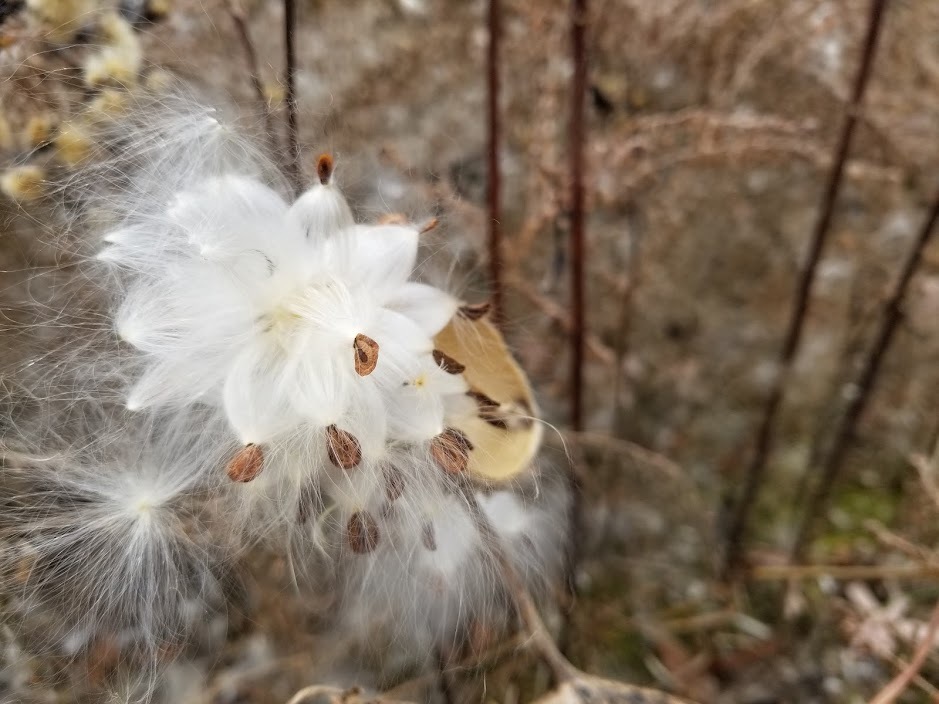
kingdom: Plantae
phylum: Tracheophyta
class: Magnoliopsida
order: Gentianales
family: Apocynaceae
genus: Asclepias
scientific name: Asclepias syriaca
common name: Common milkweed
